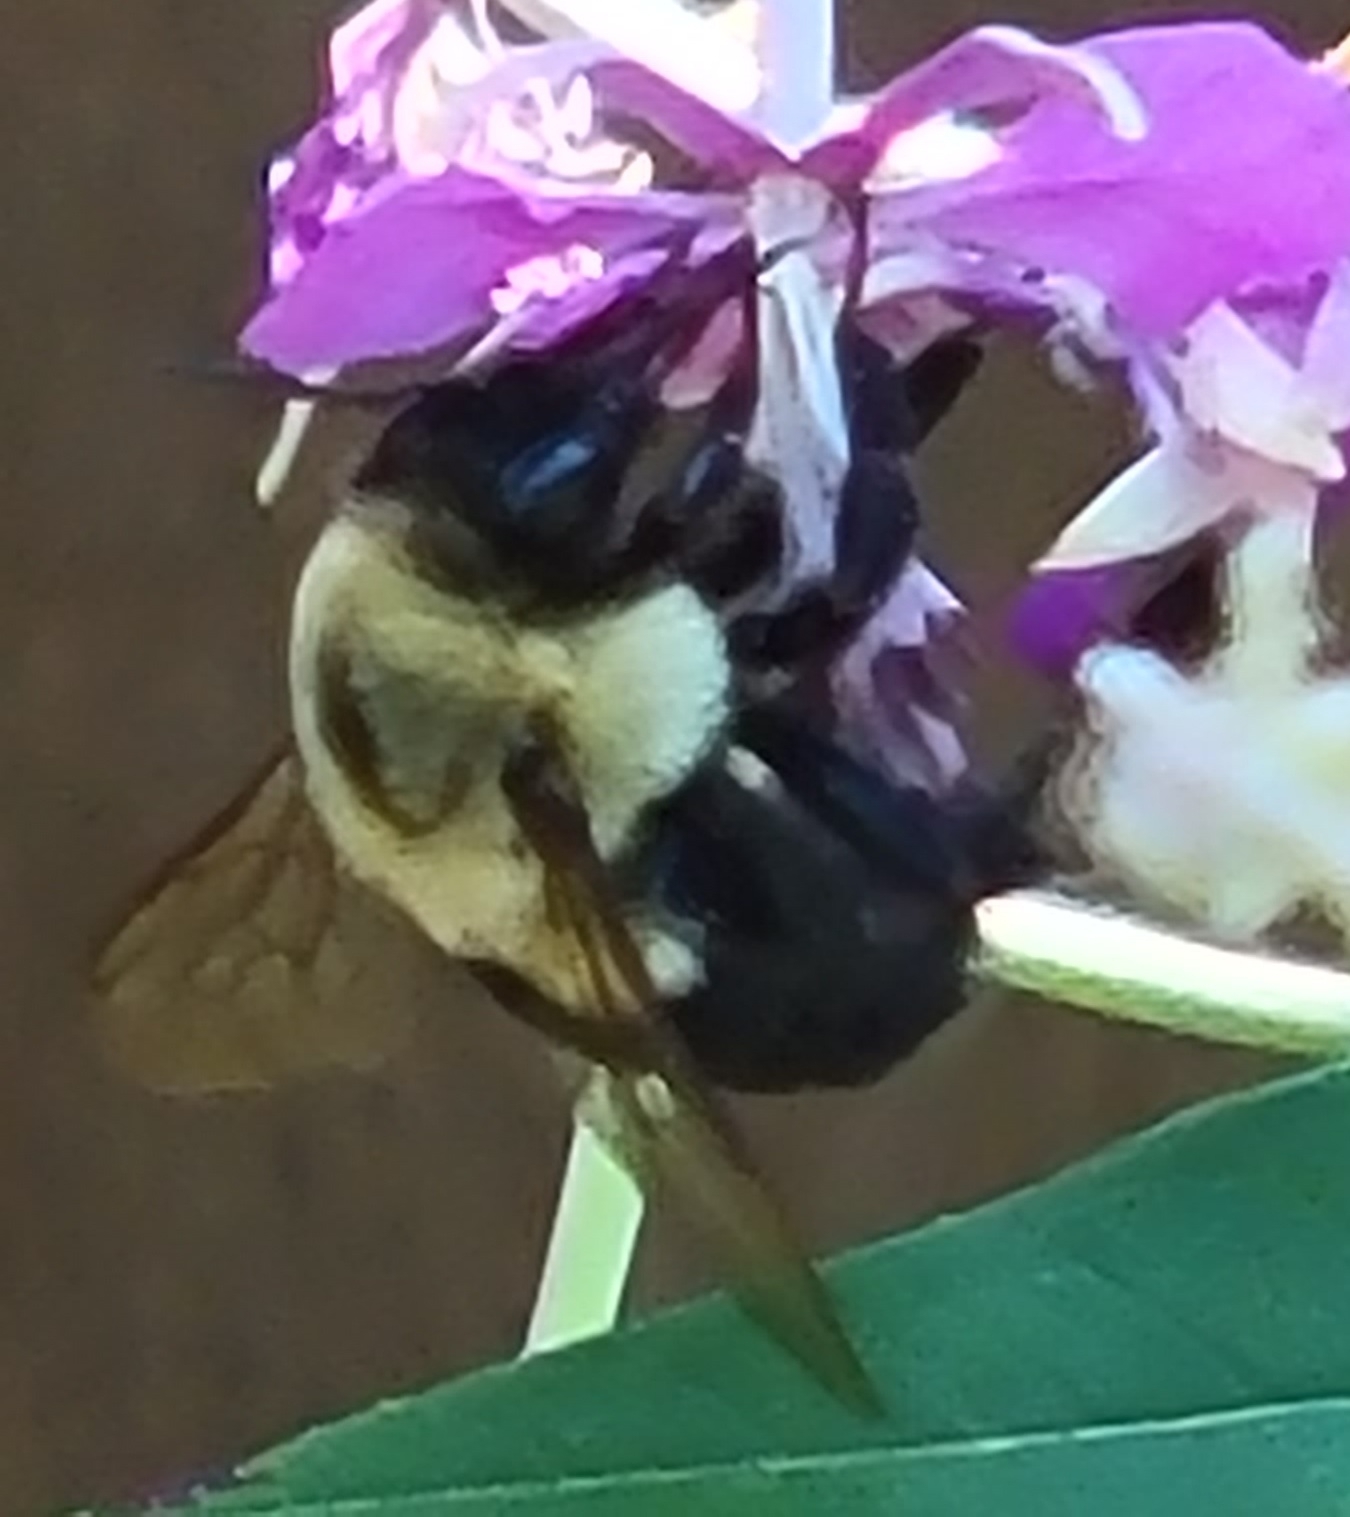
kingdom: Animalia
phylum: Arthropoda
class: Insecta
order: Hymenoptera
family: Apidae
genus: Bombus
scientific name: Bombus impatiens
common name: Common eastern bumble bee
